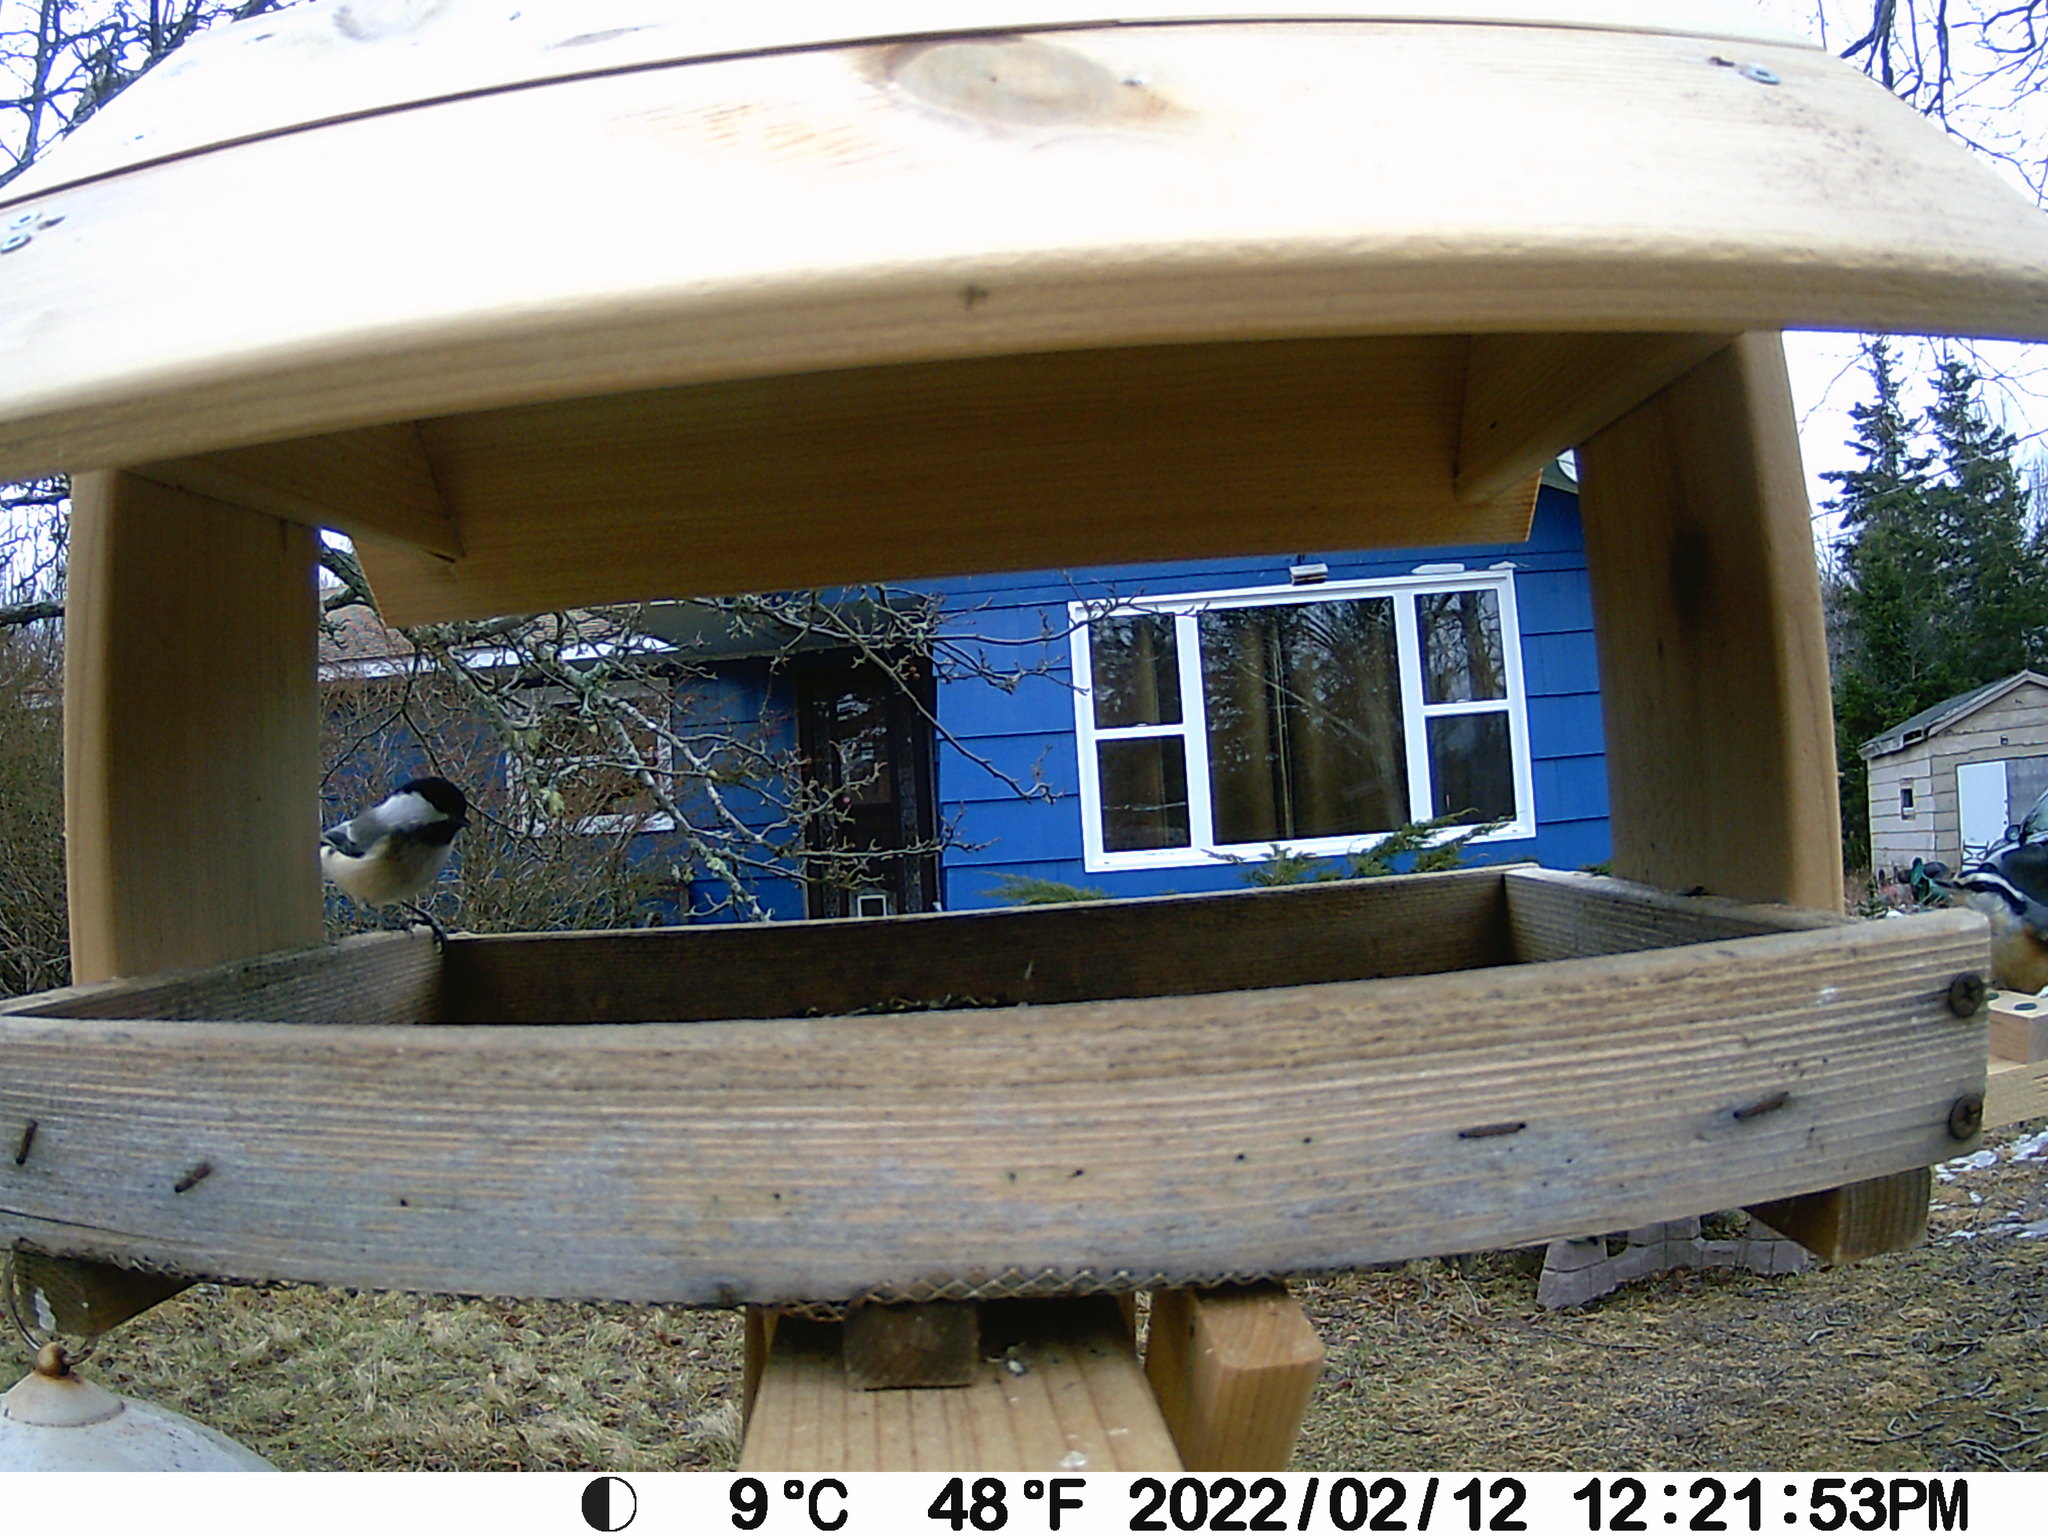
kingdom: Animalia
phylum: Chordata
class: Aves
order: Passeriformes
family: Paridae
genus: Poecile
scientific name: Poecile atricapillus
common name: Black-capped chickadee
